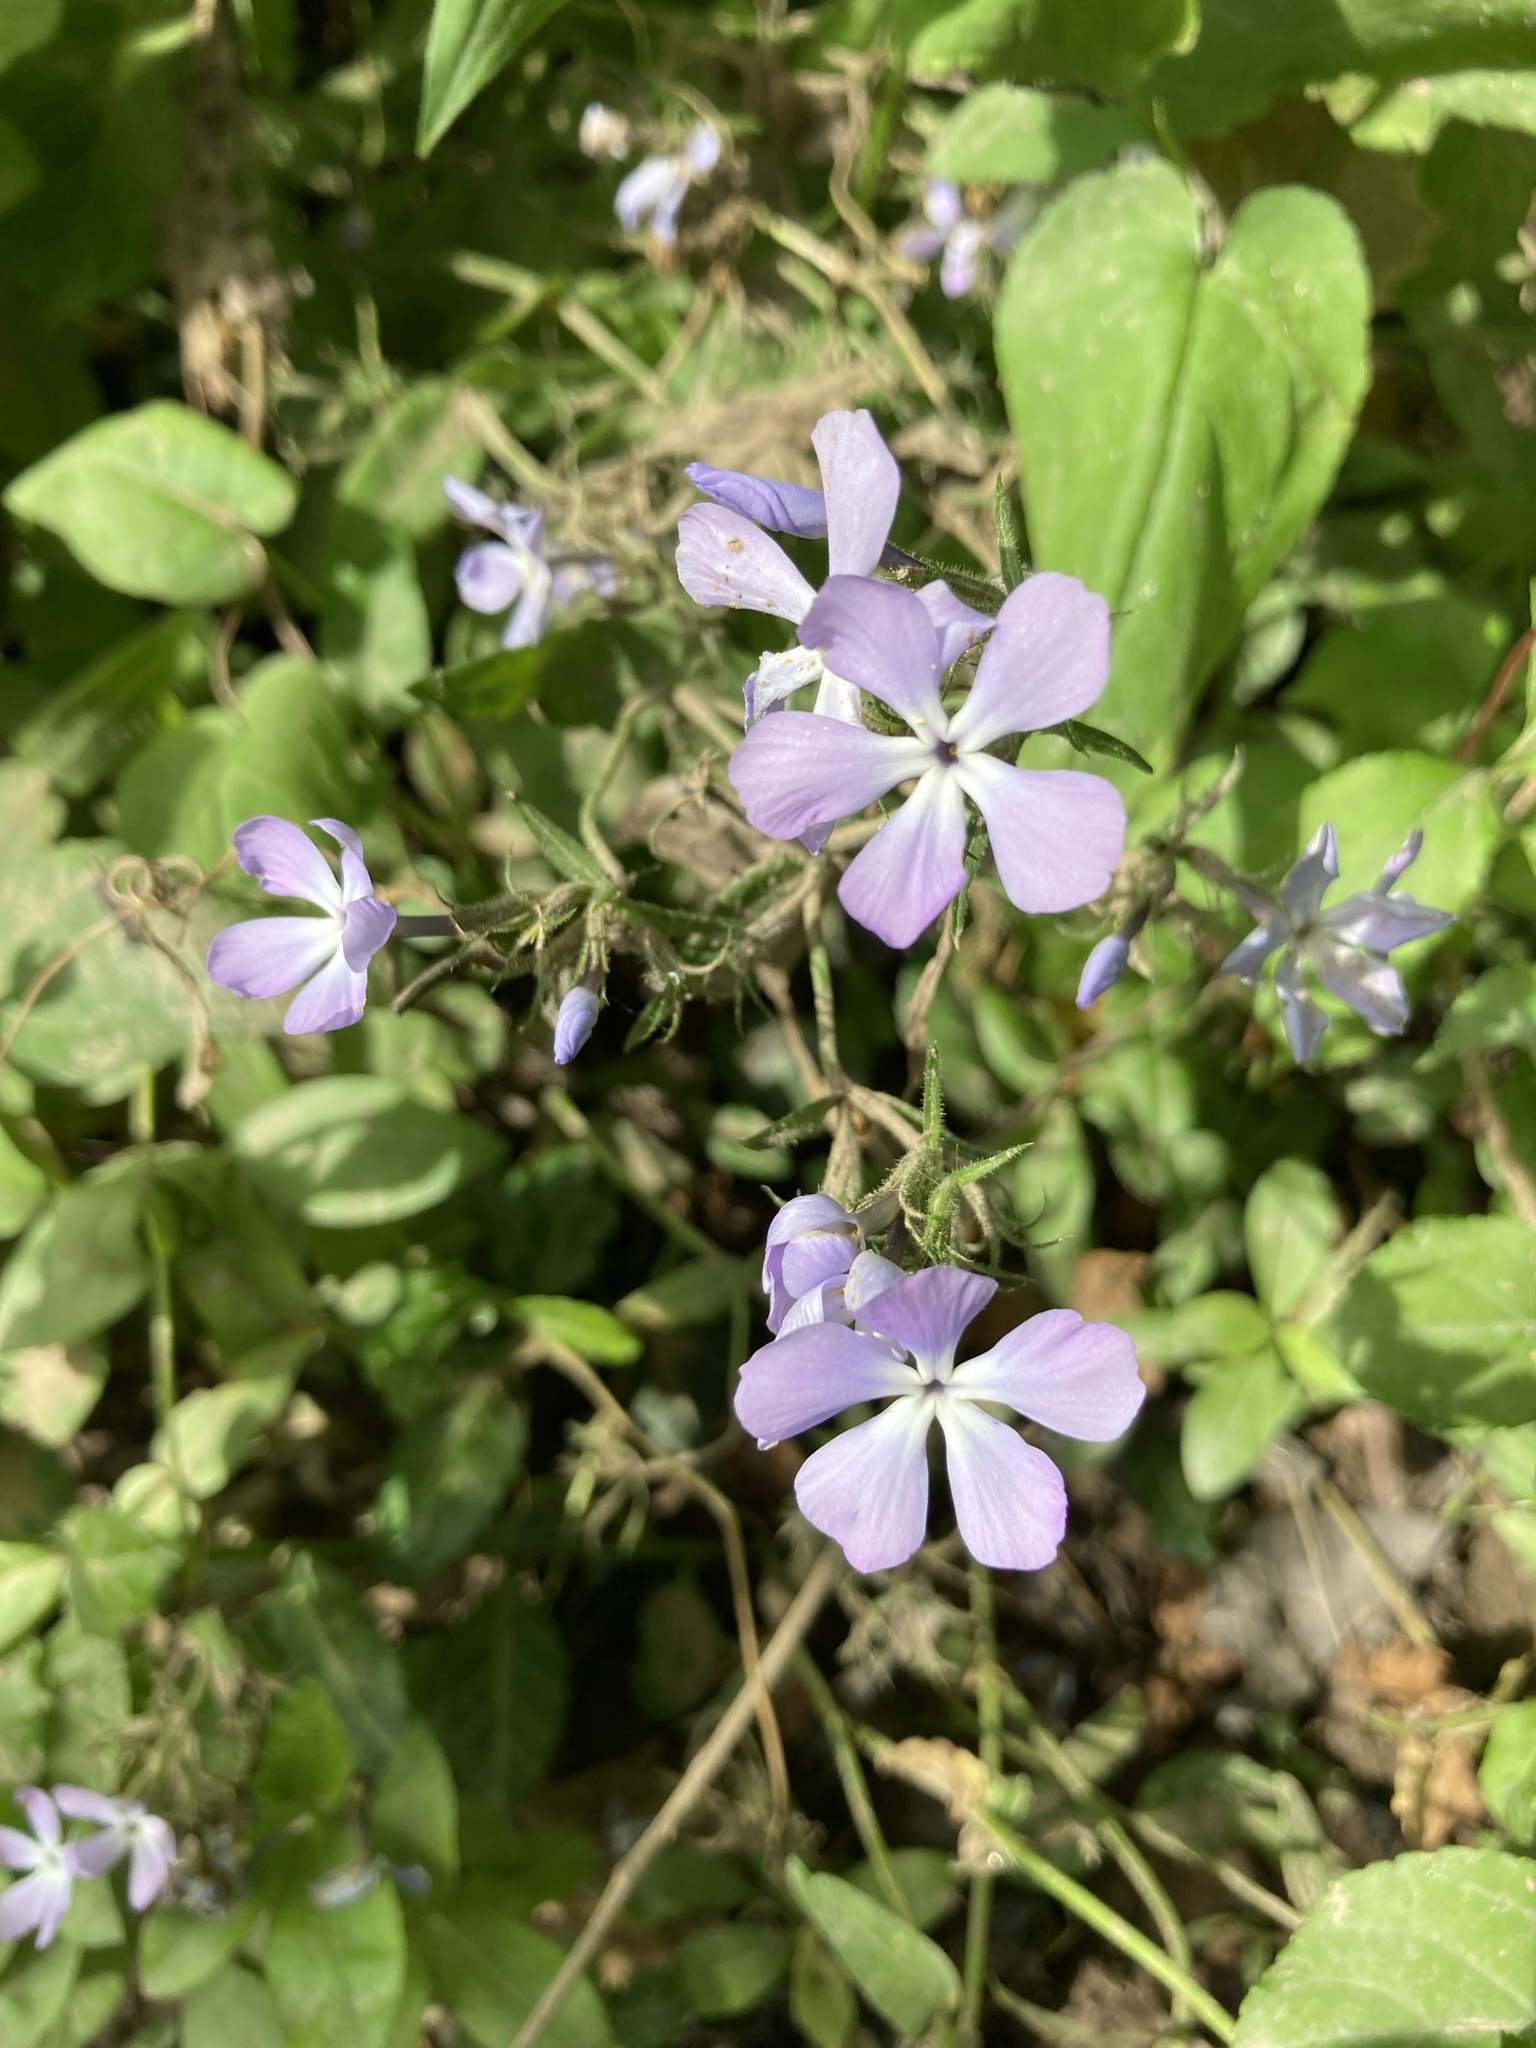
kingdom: Plantae
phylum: Tracheophyta
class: Magnoliopsida
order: Ericales
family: Polemoniaceae
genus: Phlox
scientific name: Phlox divaricata
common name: Blue phlox
